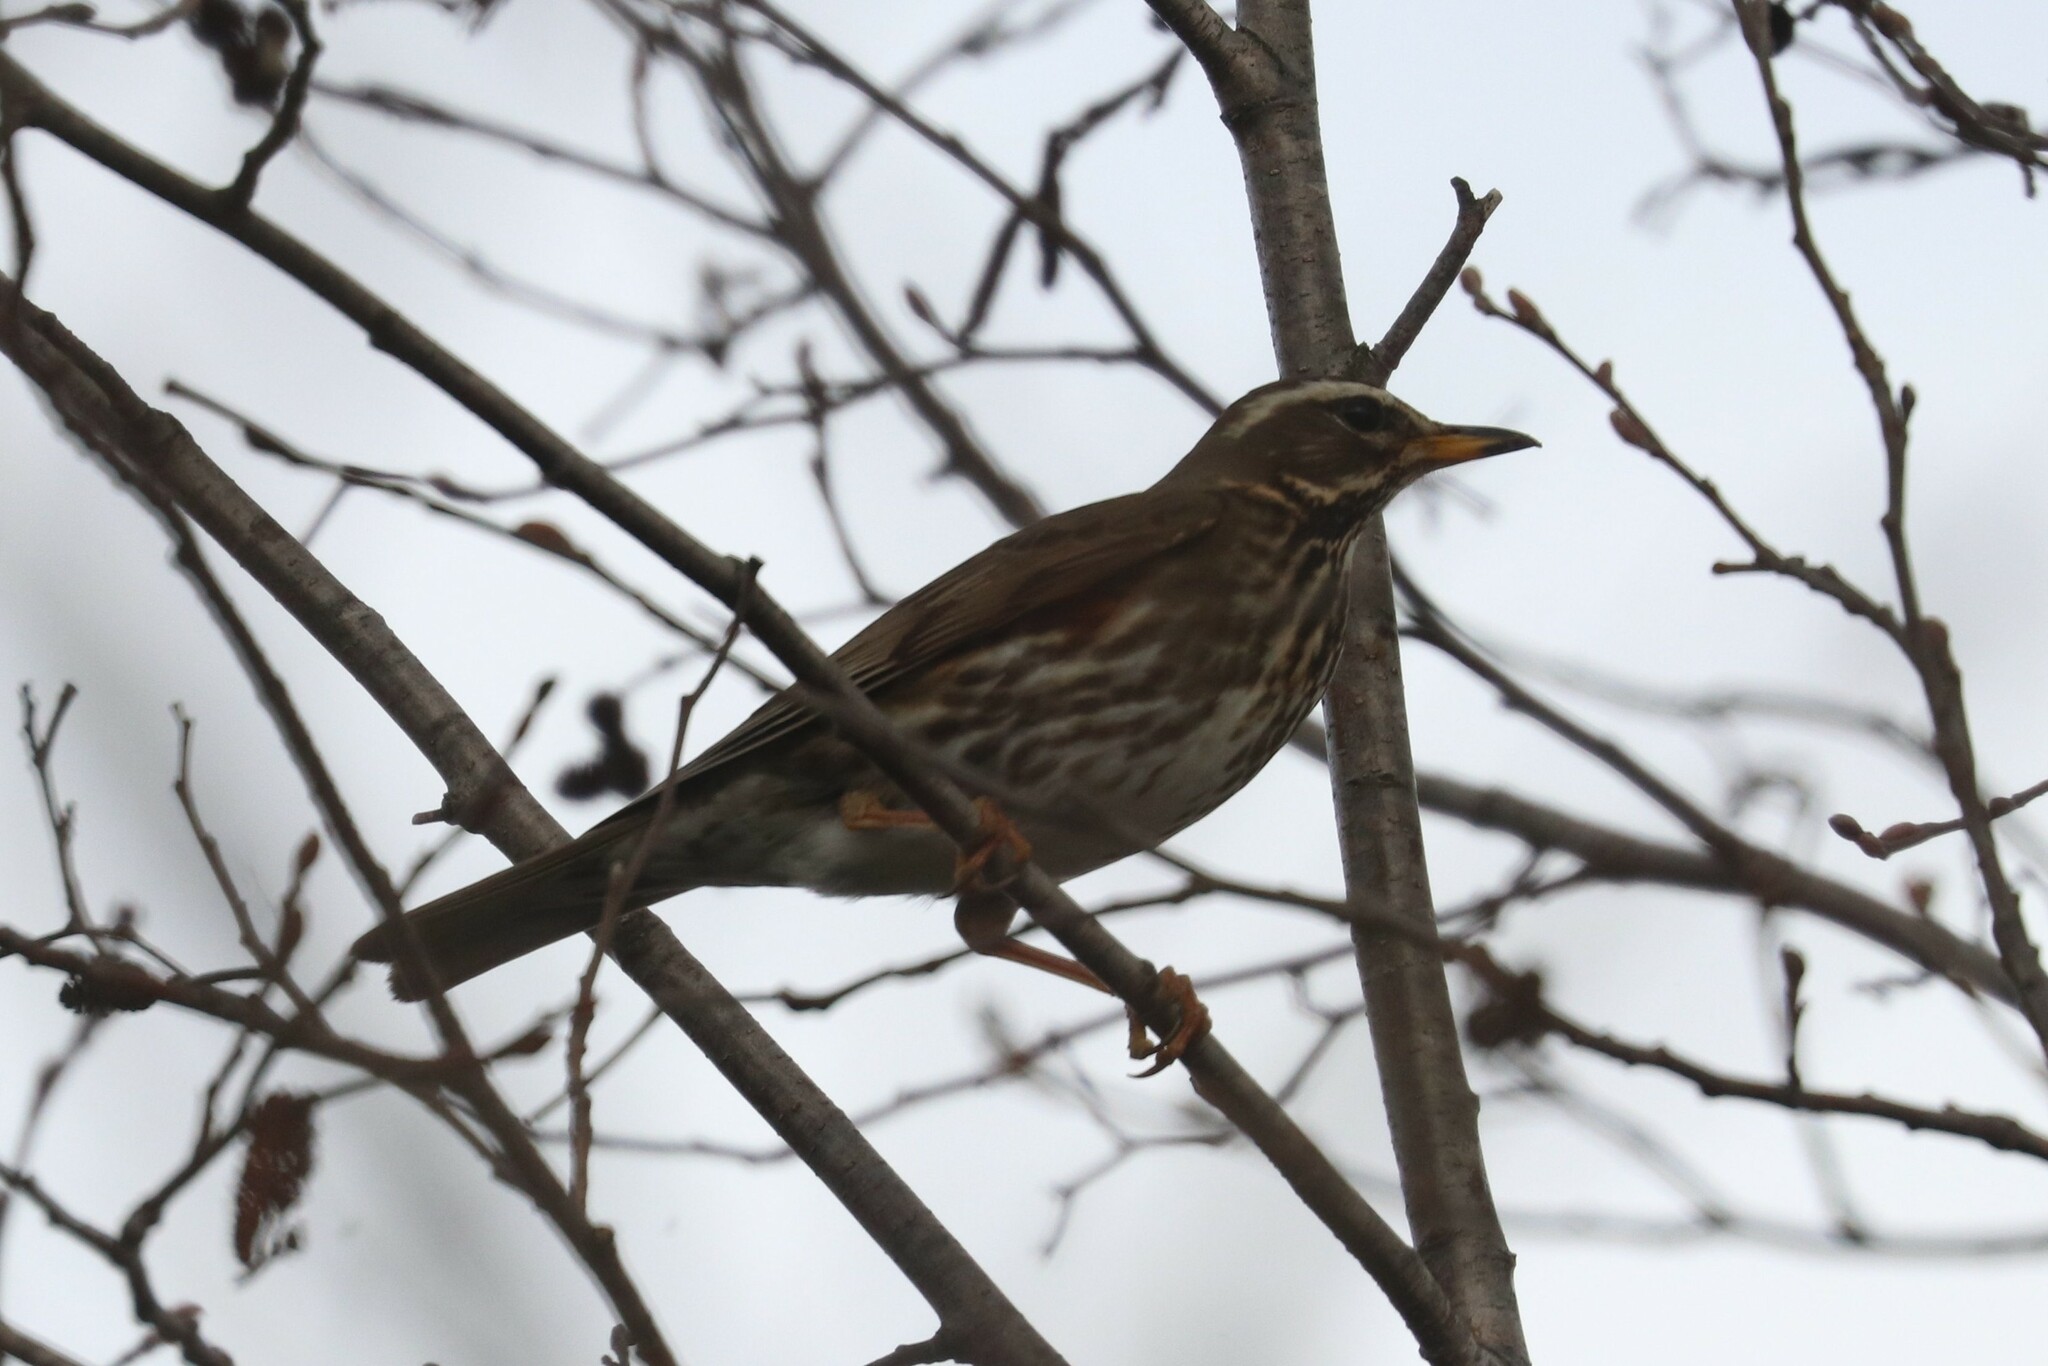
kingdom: Animalia
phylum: Chordata
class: Aves
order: Passeriformes
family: Turdidae
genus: Turdus
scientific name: Turdus iliacus
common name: Redwing
